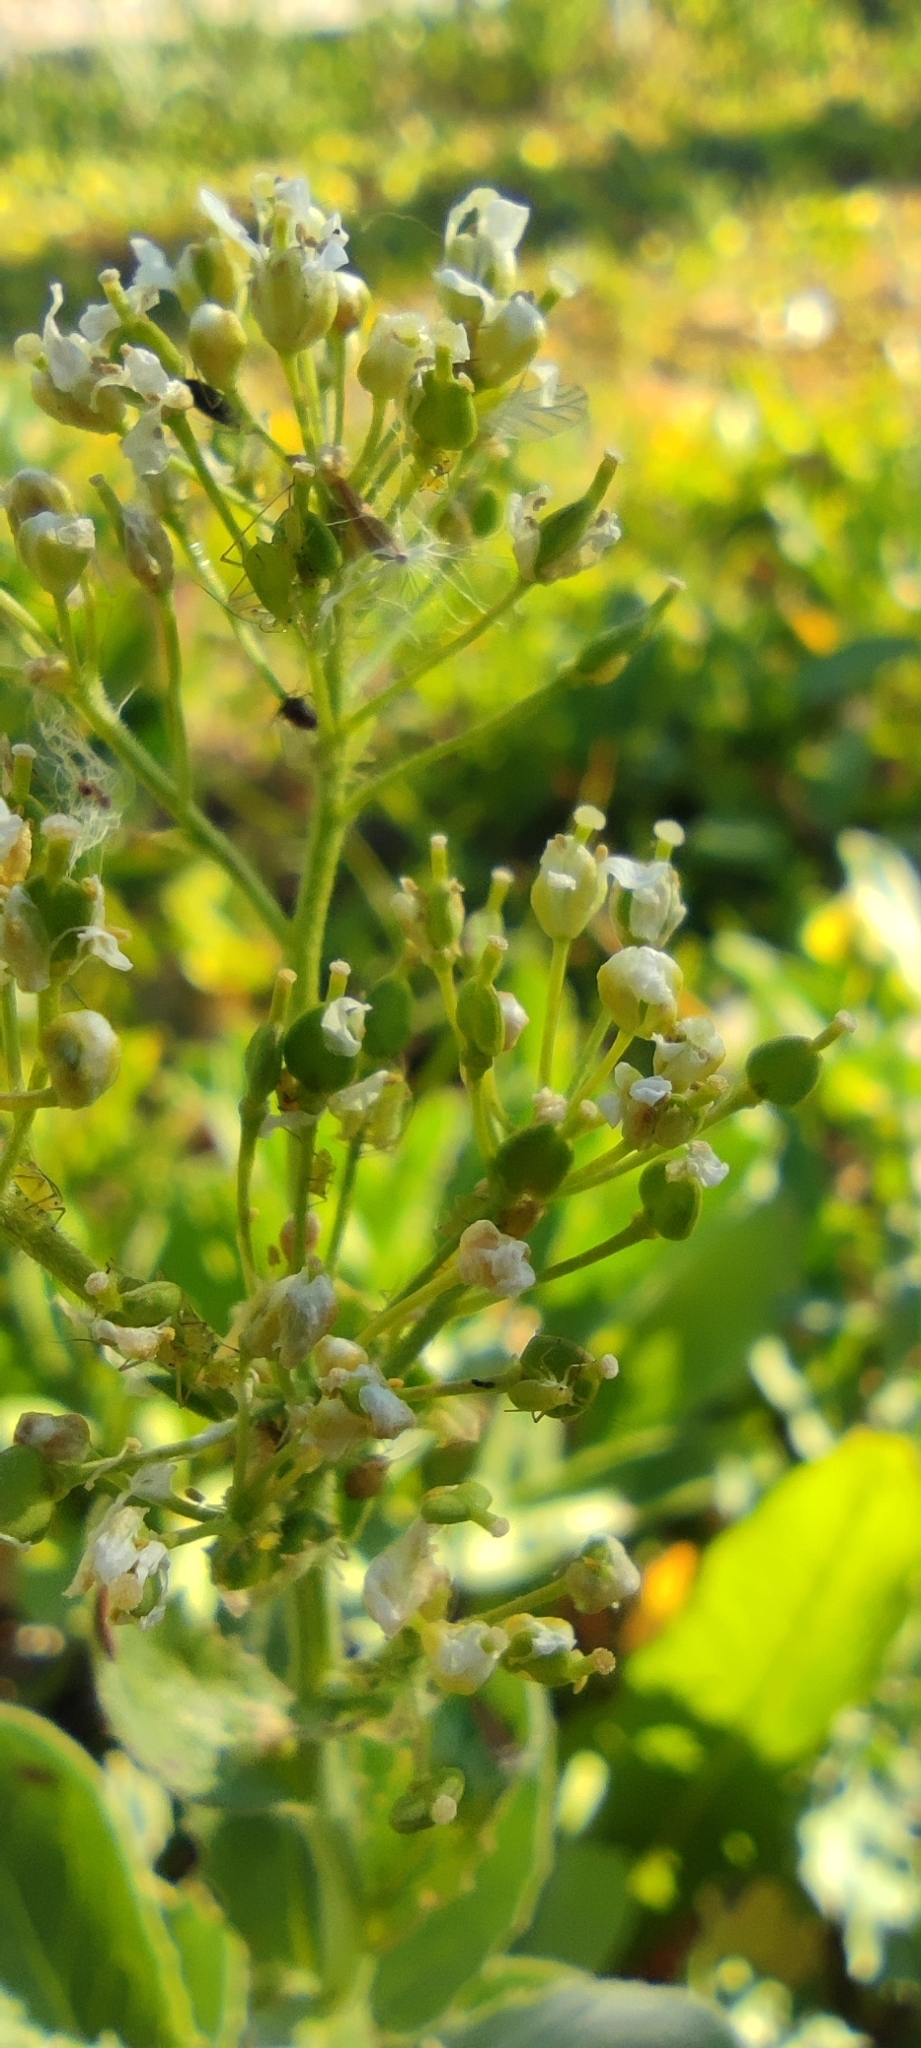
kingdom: Plantae
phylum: Tracheophyta
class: Magnoliopsida
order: Brassicales
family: Brassicaceae
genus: Lepidium
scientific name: Lepidium draba
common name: Hoary cress
